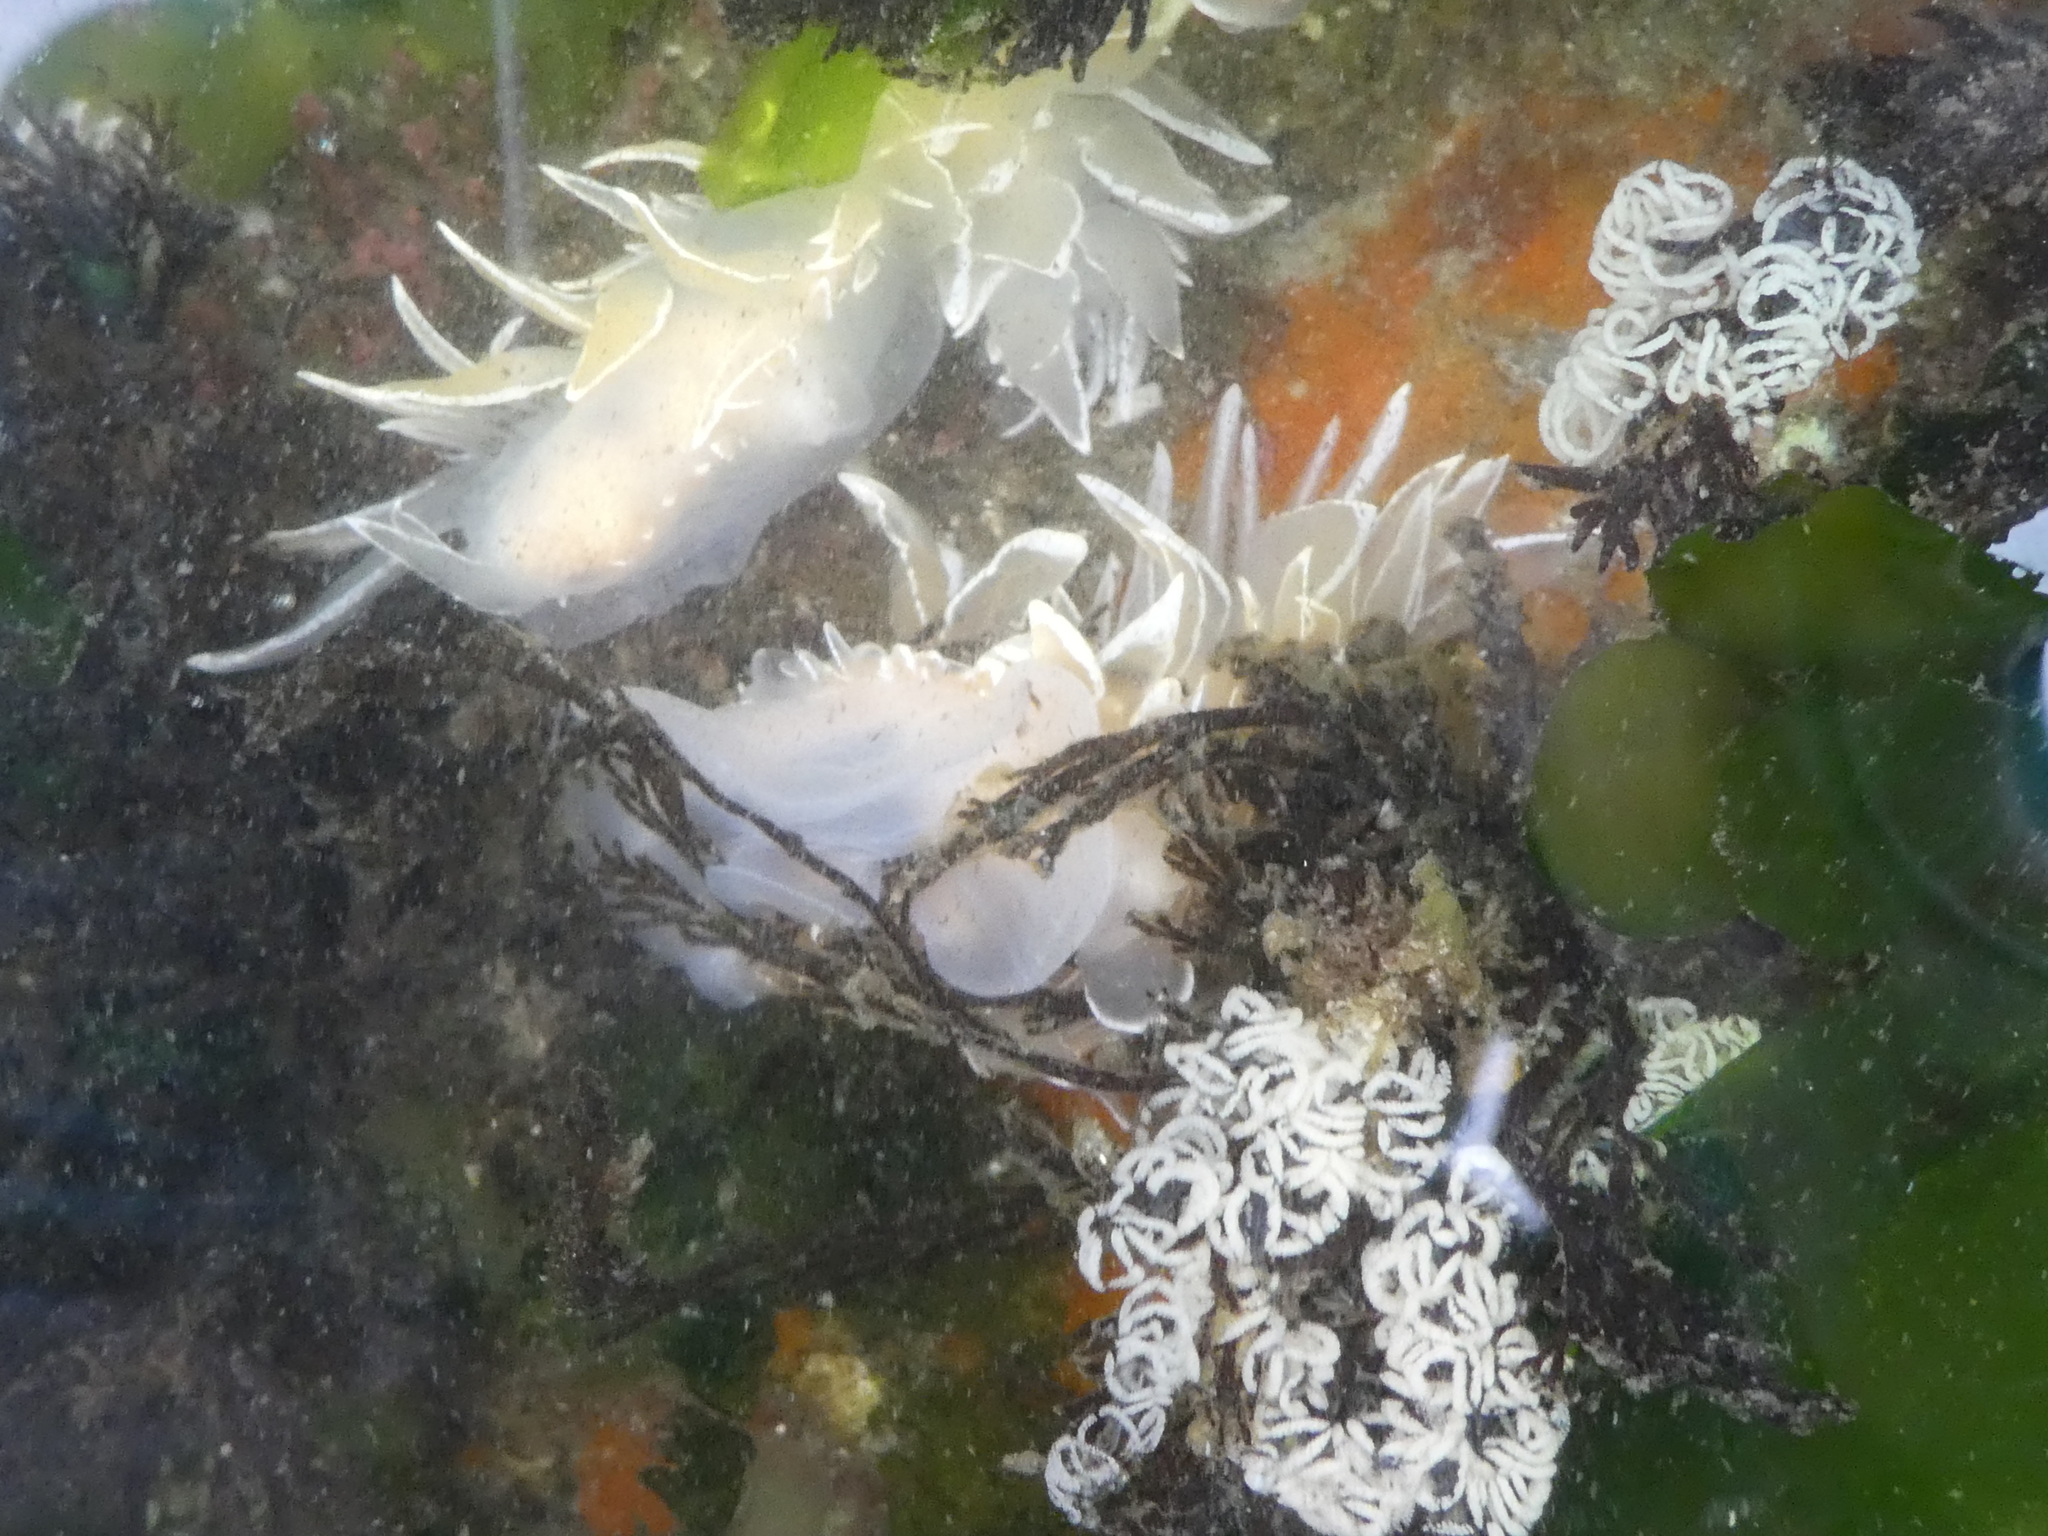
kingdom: Animalia
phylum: Mollusca
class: Gastropoda
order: Nudibranchia
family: Dironidae
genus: Dirona
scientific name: Dirona albolineata
